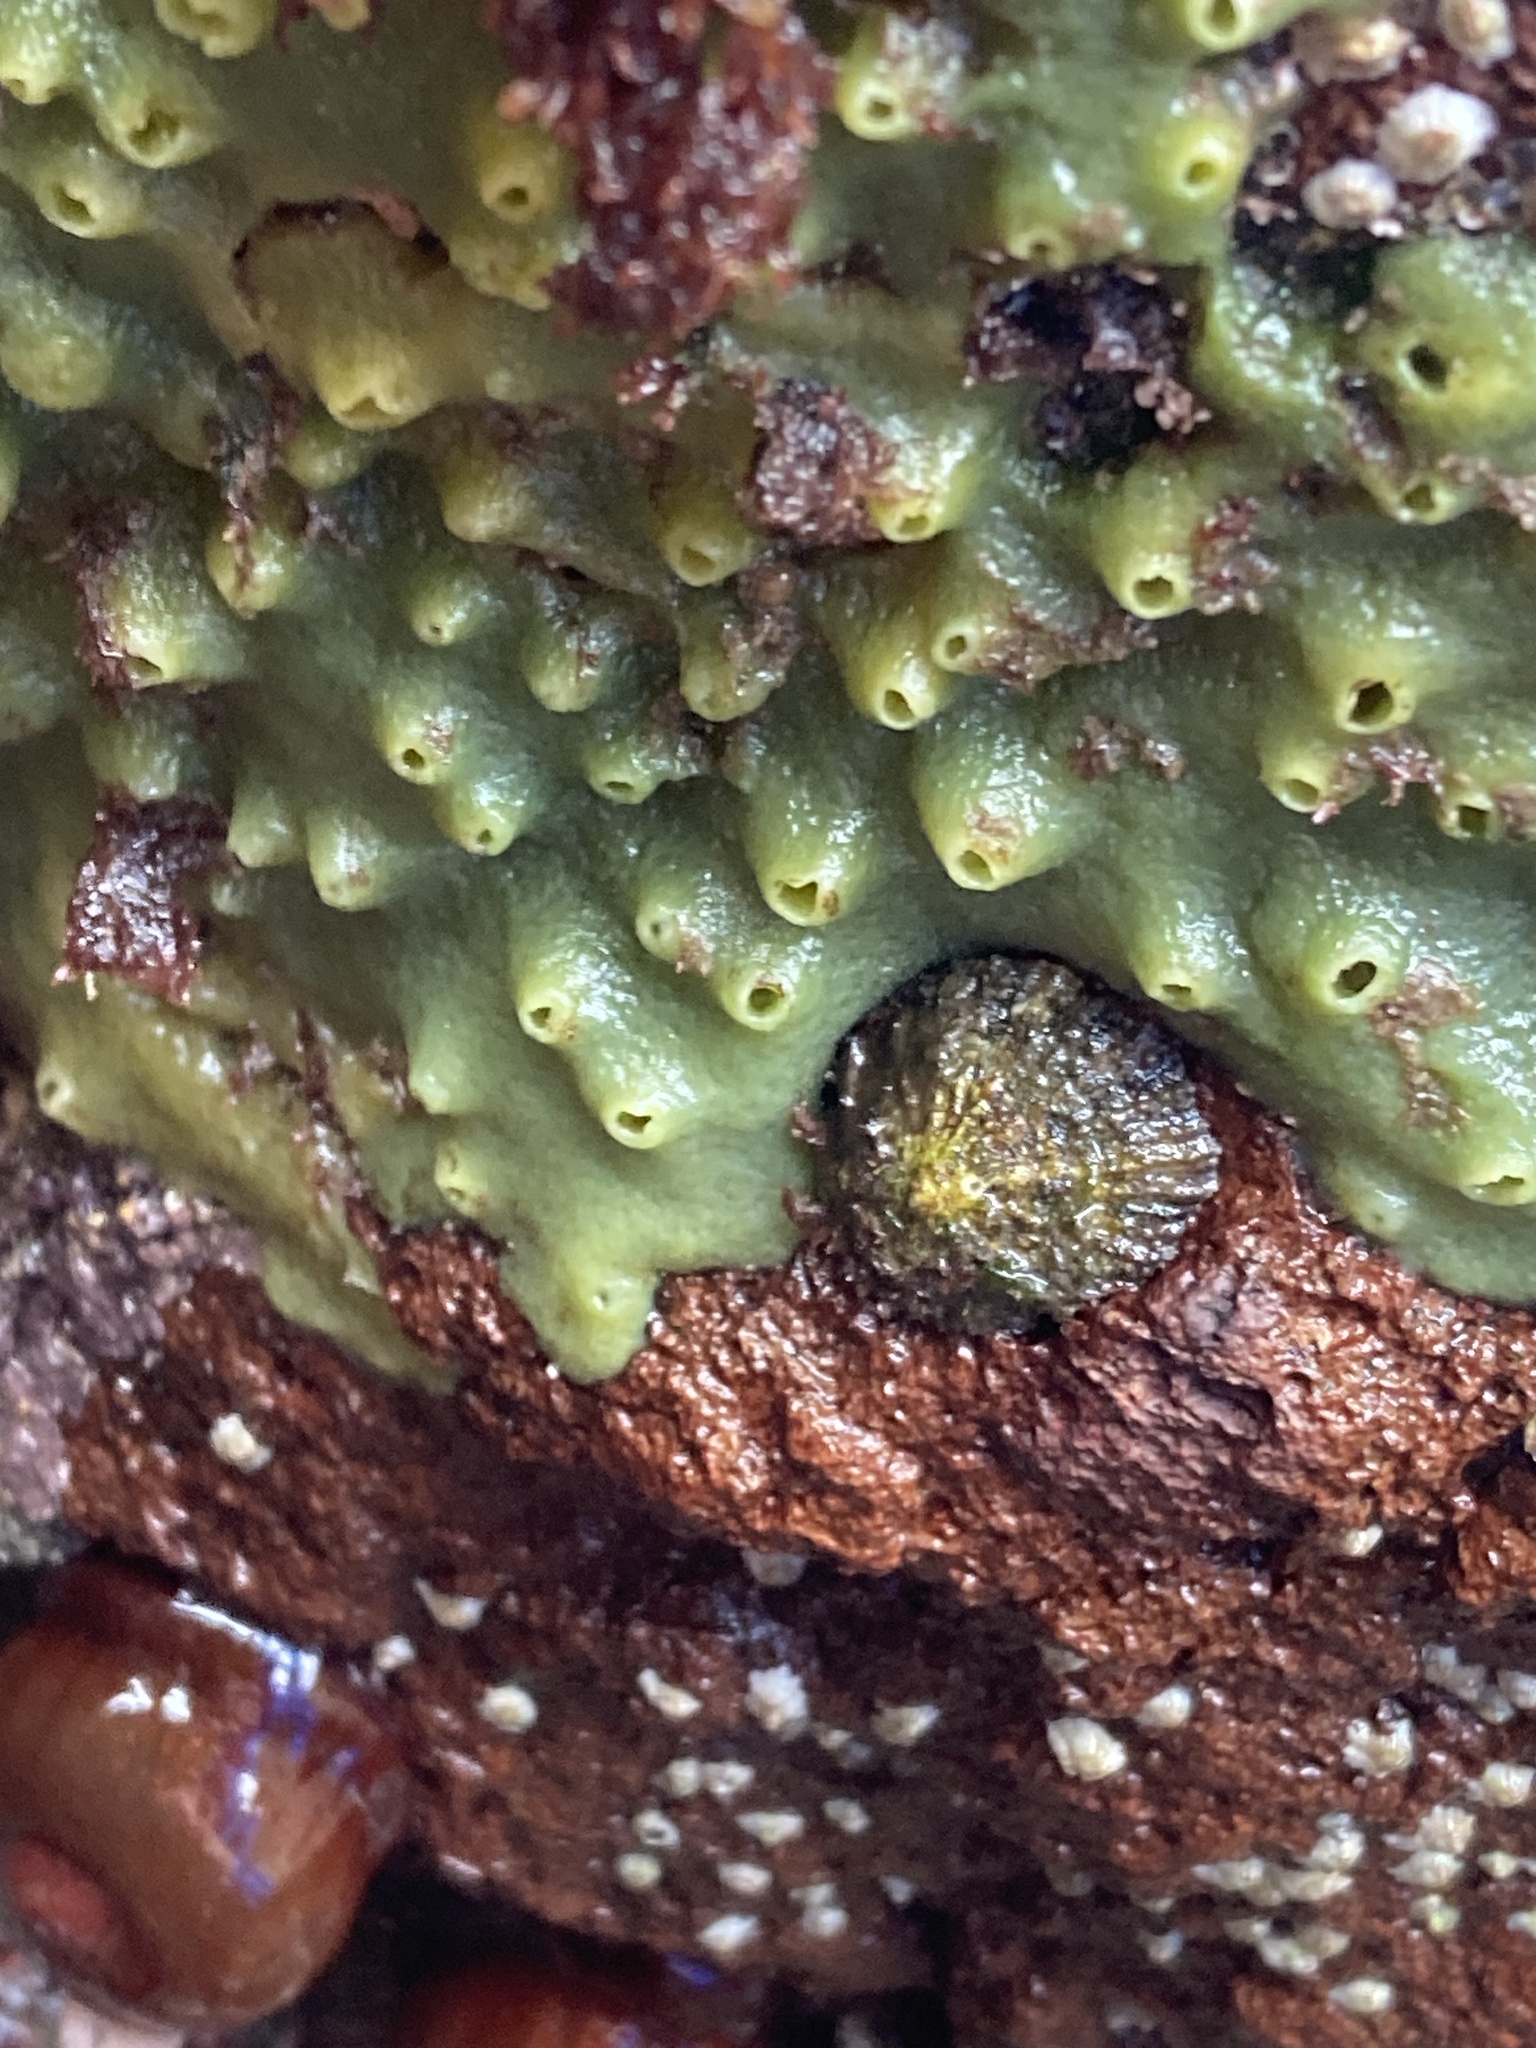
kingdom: Animalia
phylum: Porifera
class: Demospongiae
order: Suberitida
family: Halichondriidae
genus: Halichondria
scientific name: Halichondria panicea
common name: Breadcrumb sponge
